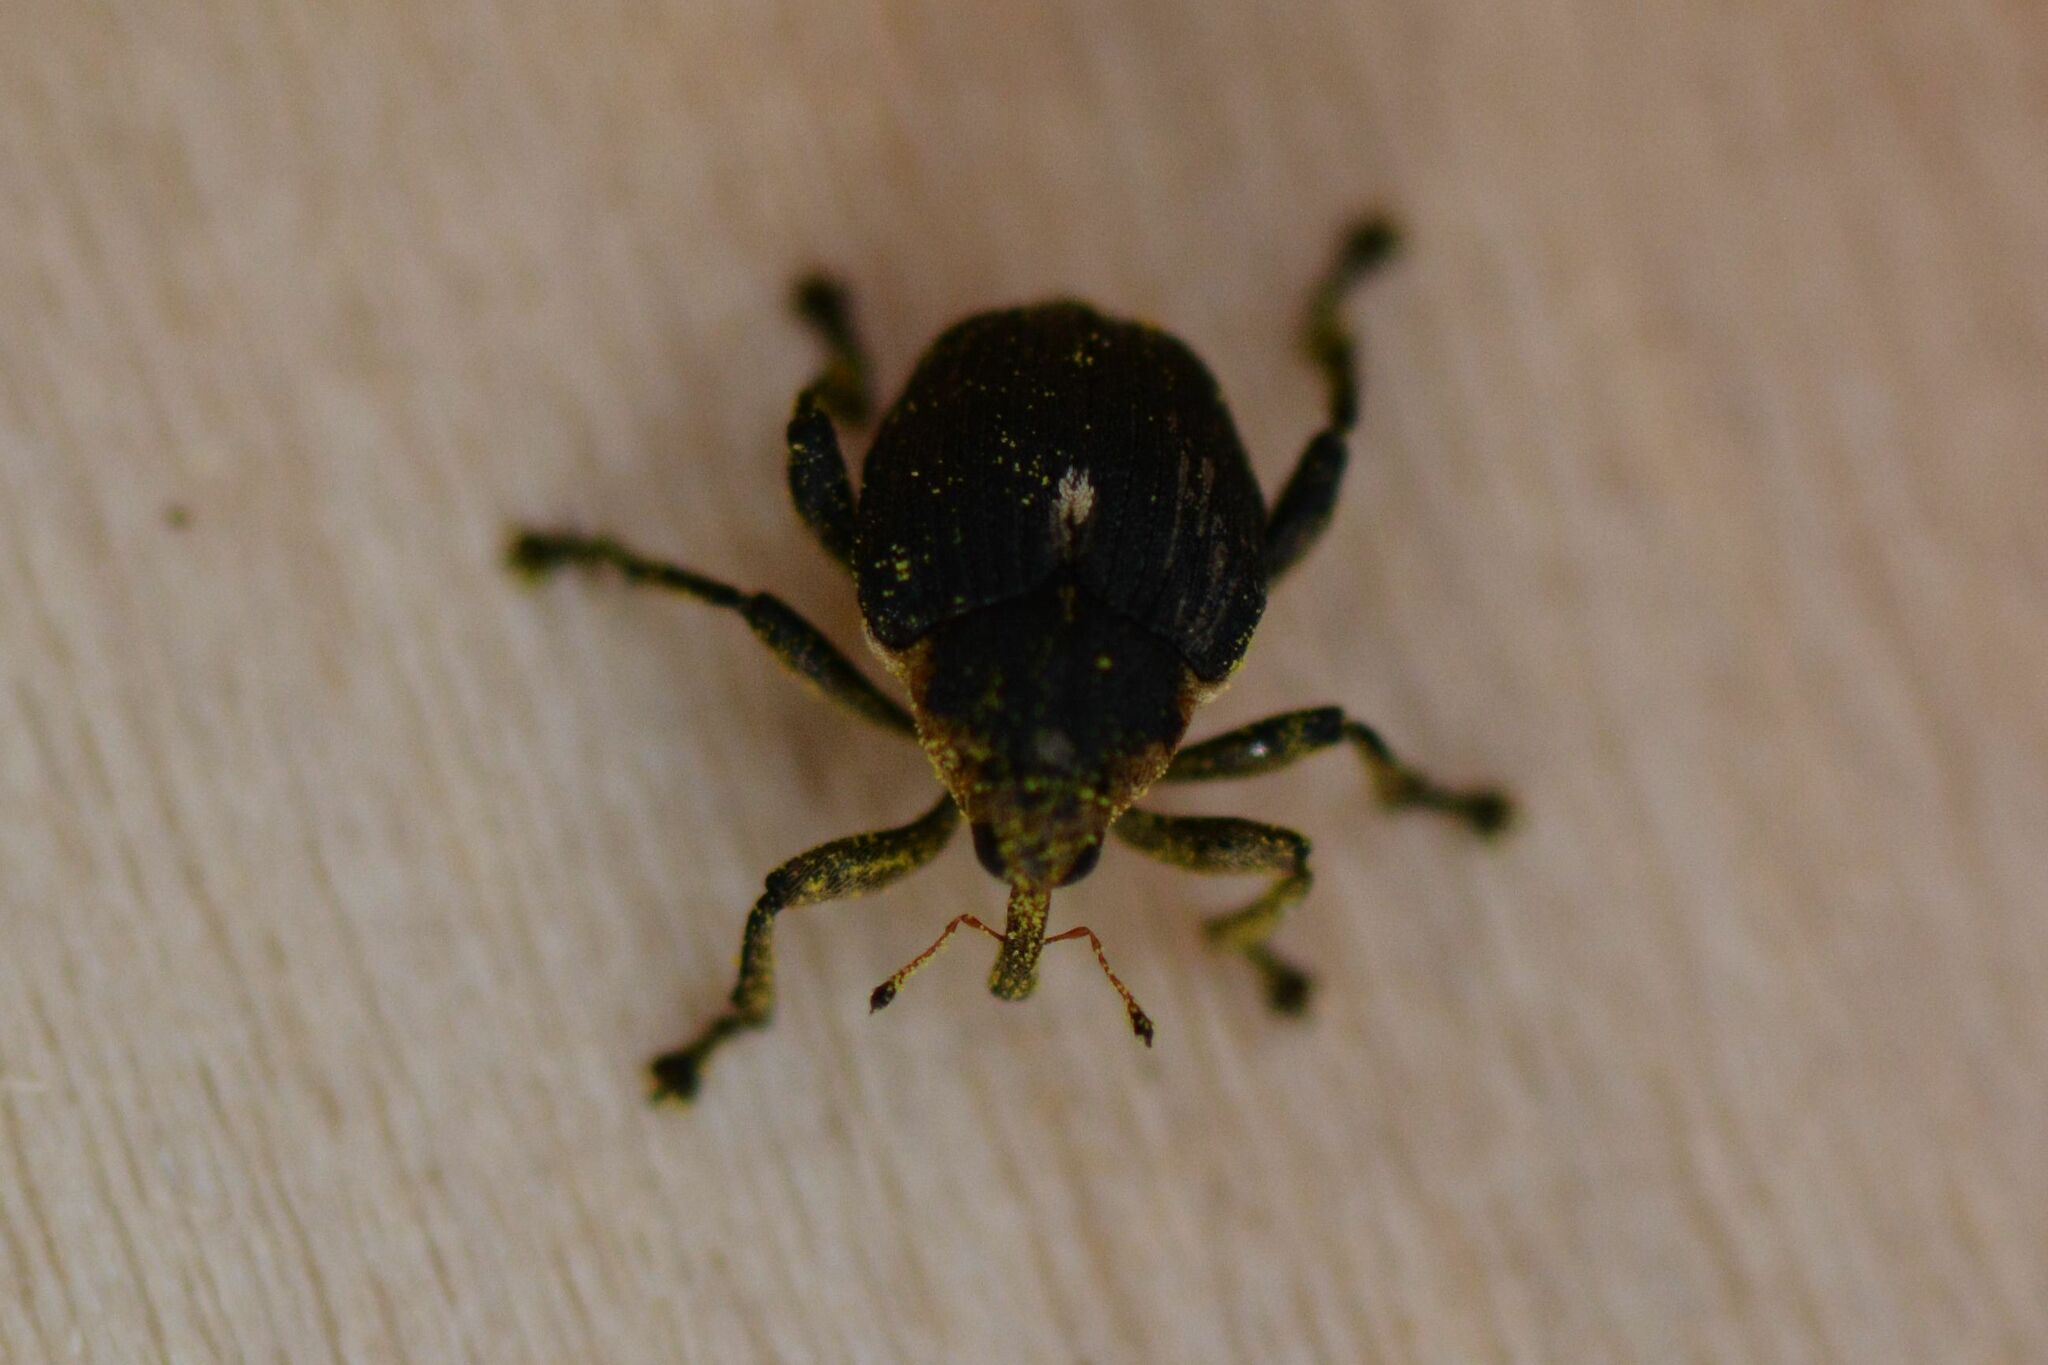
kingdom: Animalia
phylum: Arthropoda
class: Insecta
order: Coleoptera
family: Curculionidae
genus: Mononychus
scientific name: Mononychus punctumalbum
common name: Iris weevil
